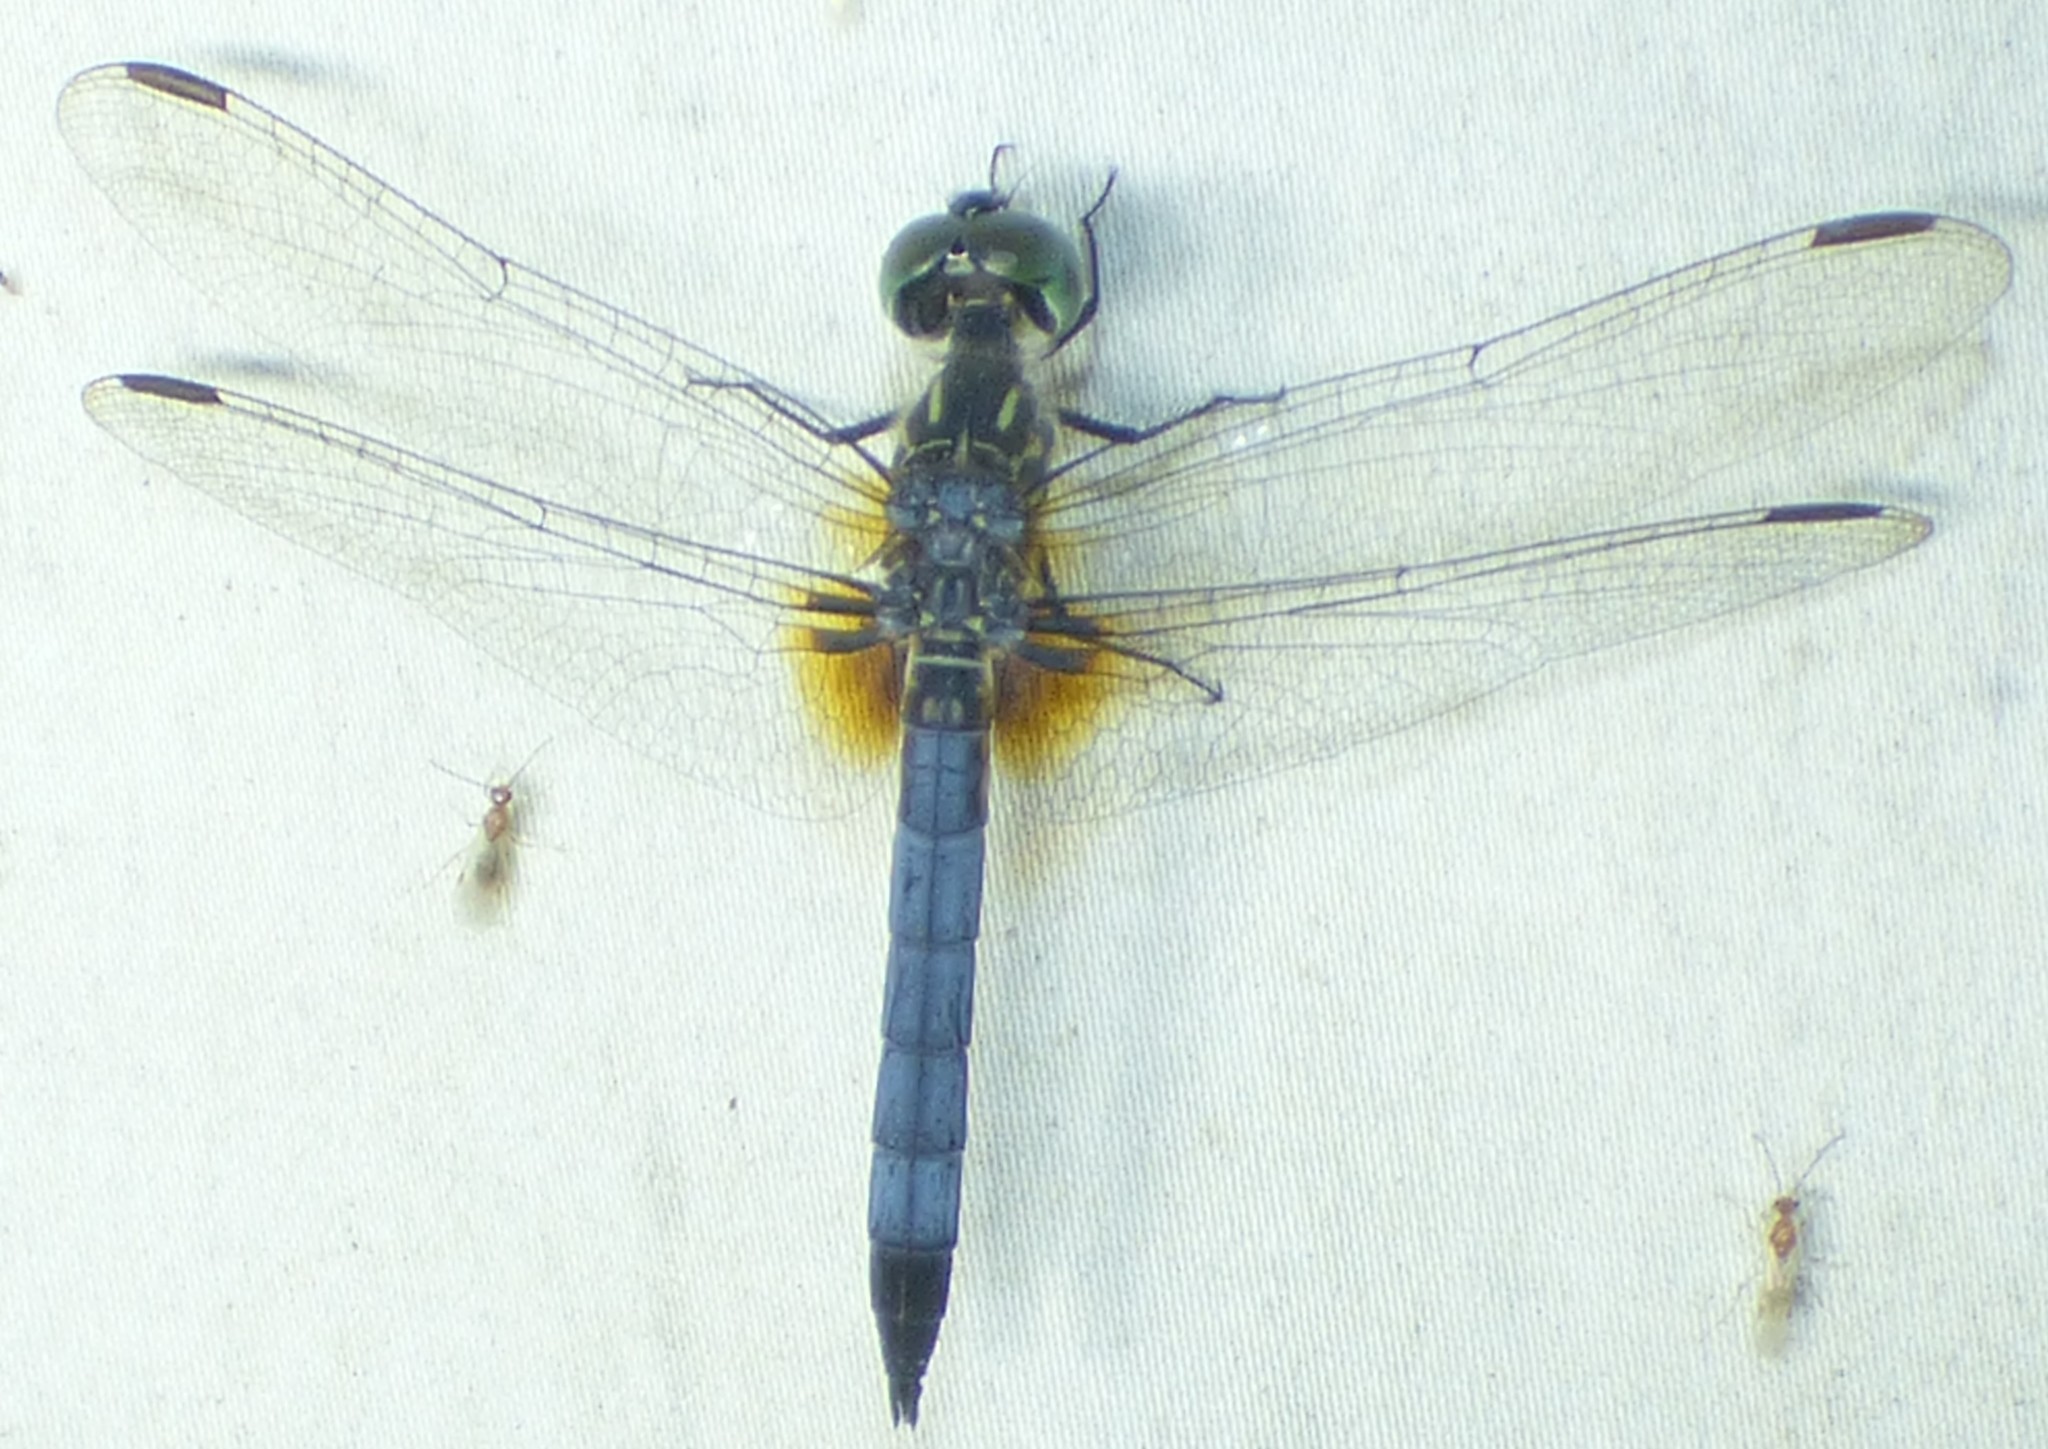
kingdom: Animalia
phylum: Arthropoda
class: Insecta
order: Odonata
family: Libellulidae
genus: Pachydiplax
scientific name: Pachydiplax longipennis
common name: Blue dasher
